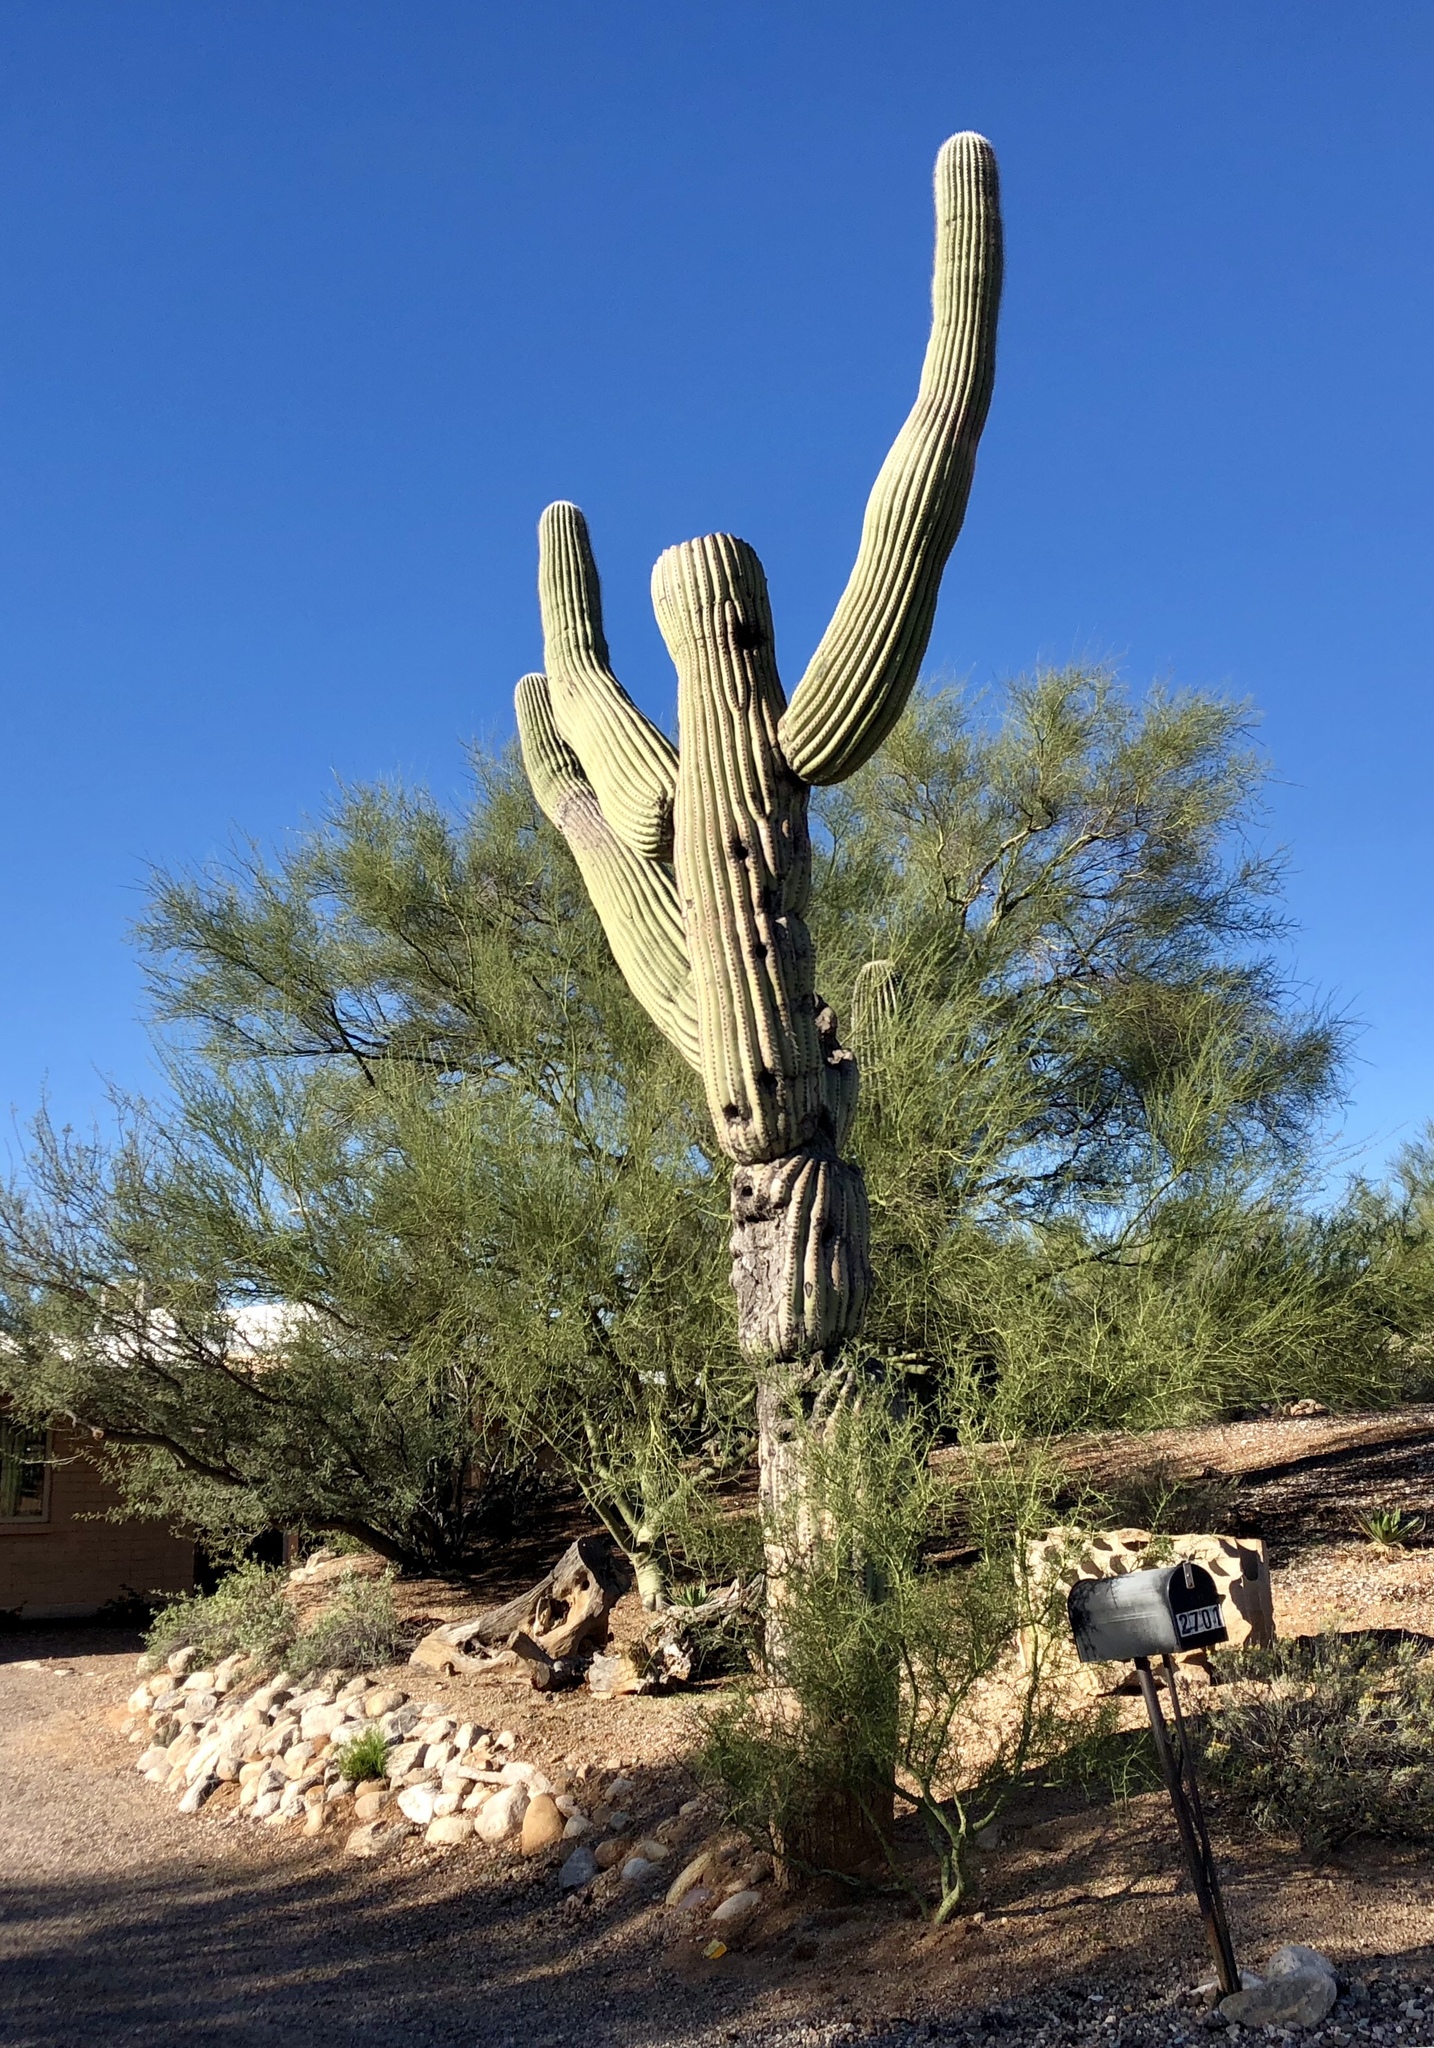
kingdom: Plantae
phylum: Tracheophyta
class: Magnoliopsida
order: Caryophyllales
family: Cactaceae
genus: Carnegiea
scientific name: Carnegiea gigantea
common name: Saguaro
